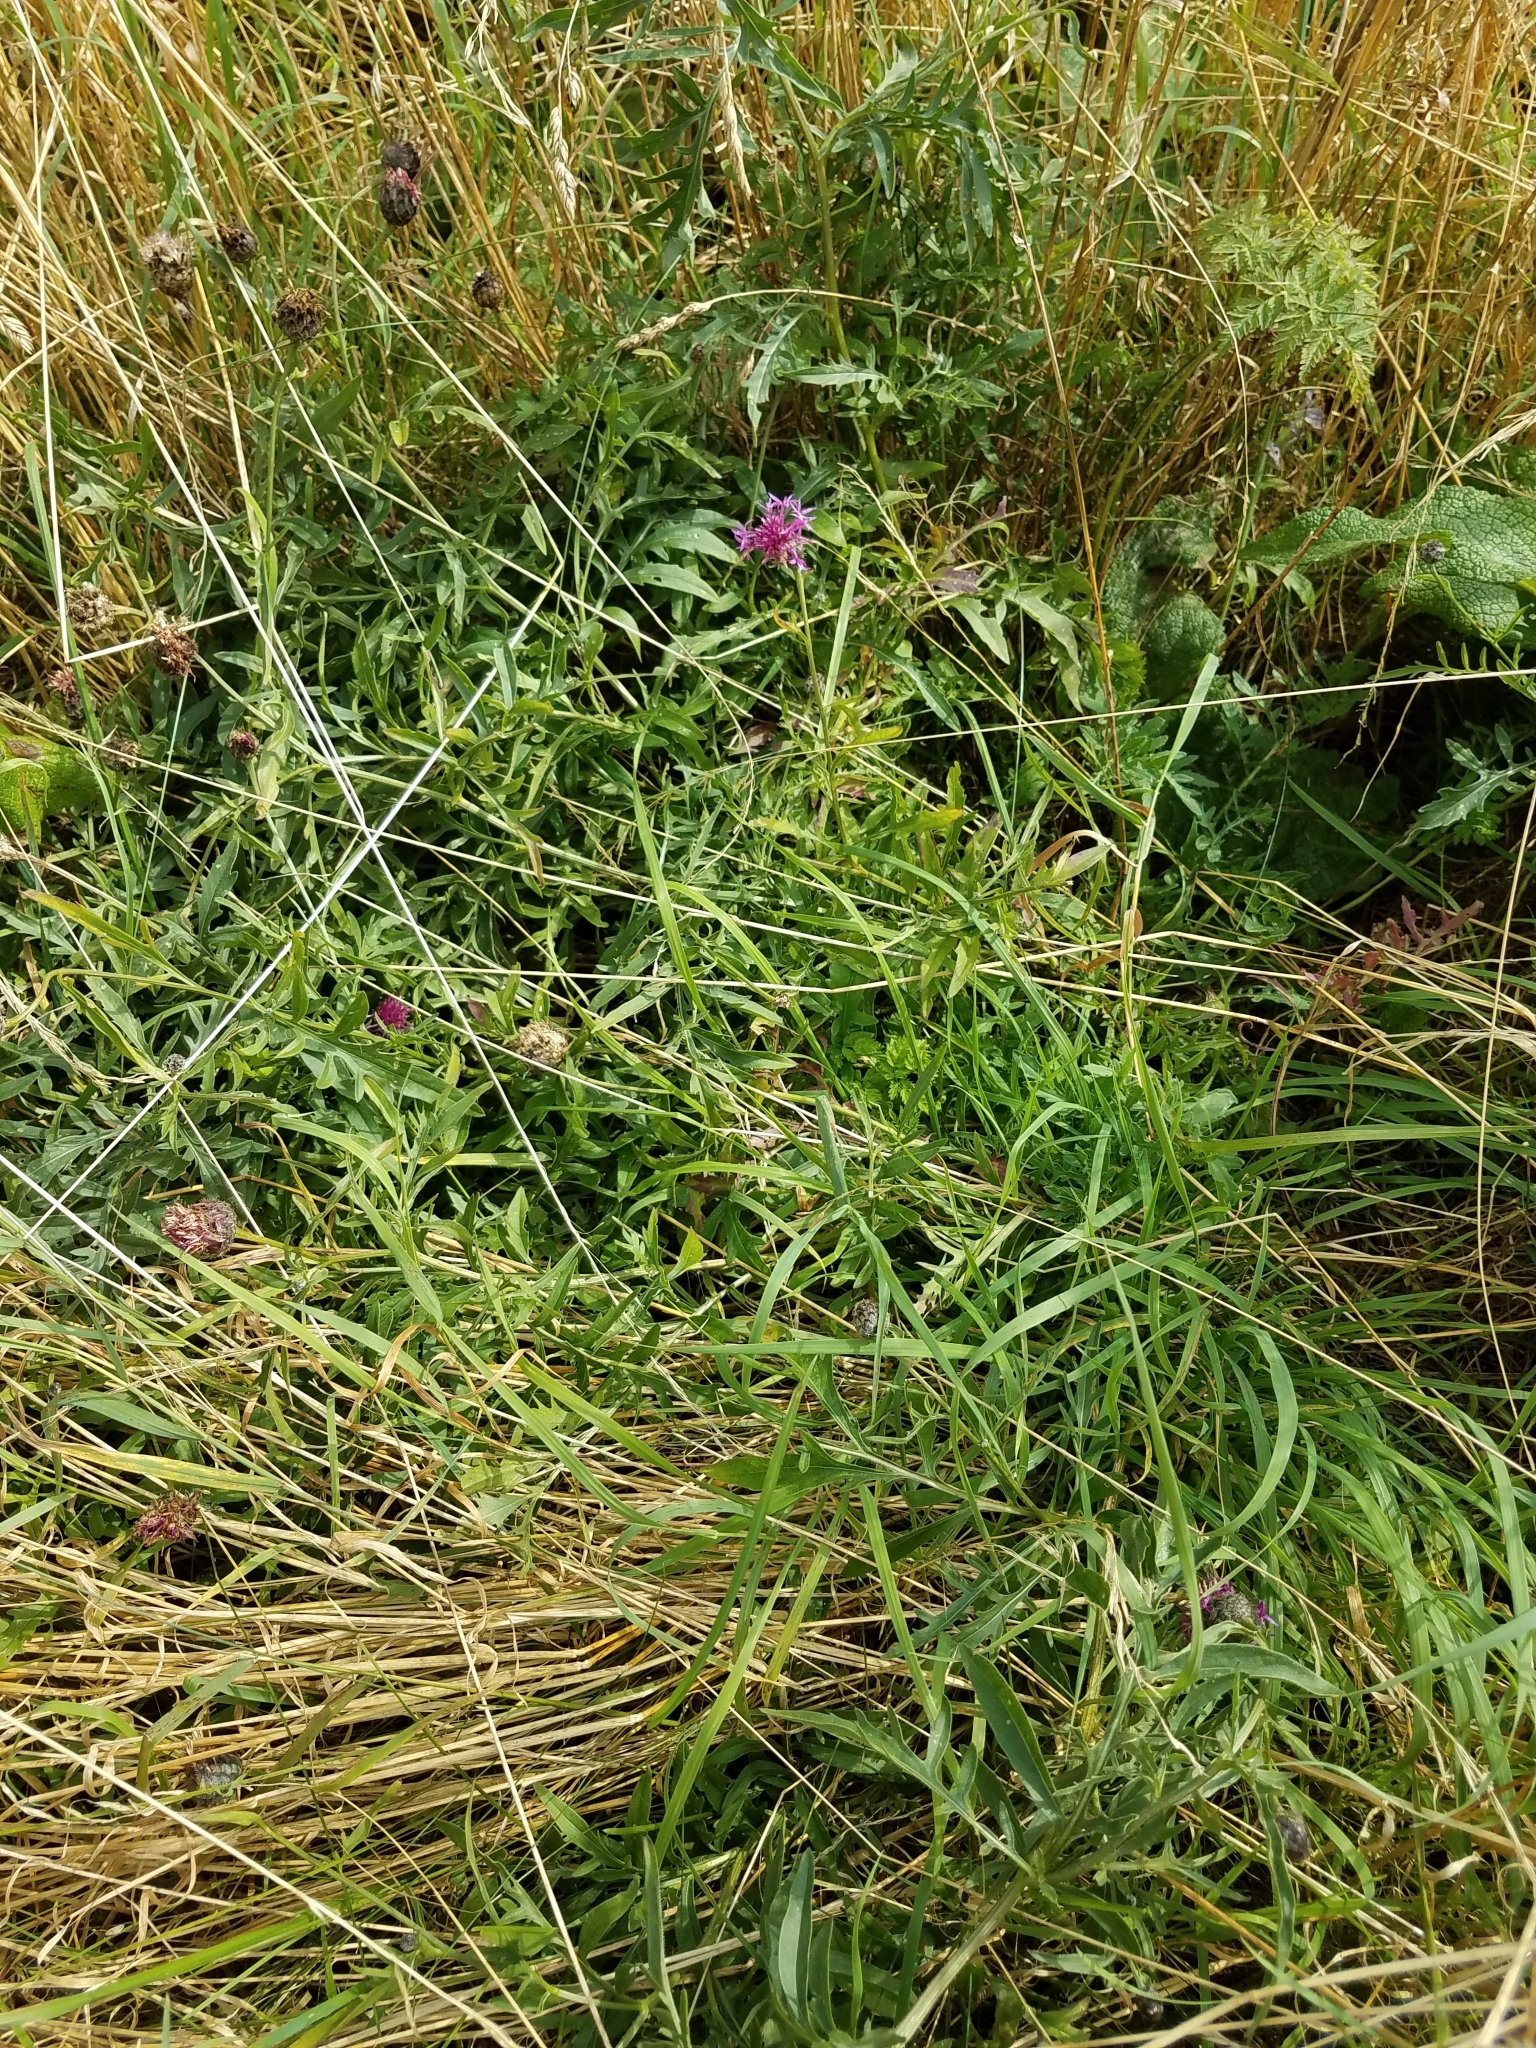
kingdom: Plantae
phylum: Tracheophyta
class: Magnoliopsida
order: Asterales
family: Asteraceae
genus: Centaurea
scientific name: Centaurea scabiosa
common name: Greater knapweed
